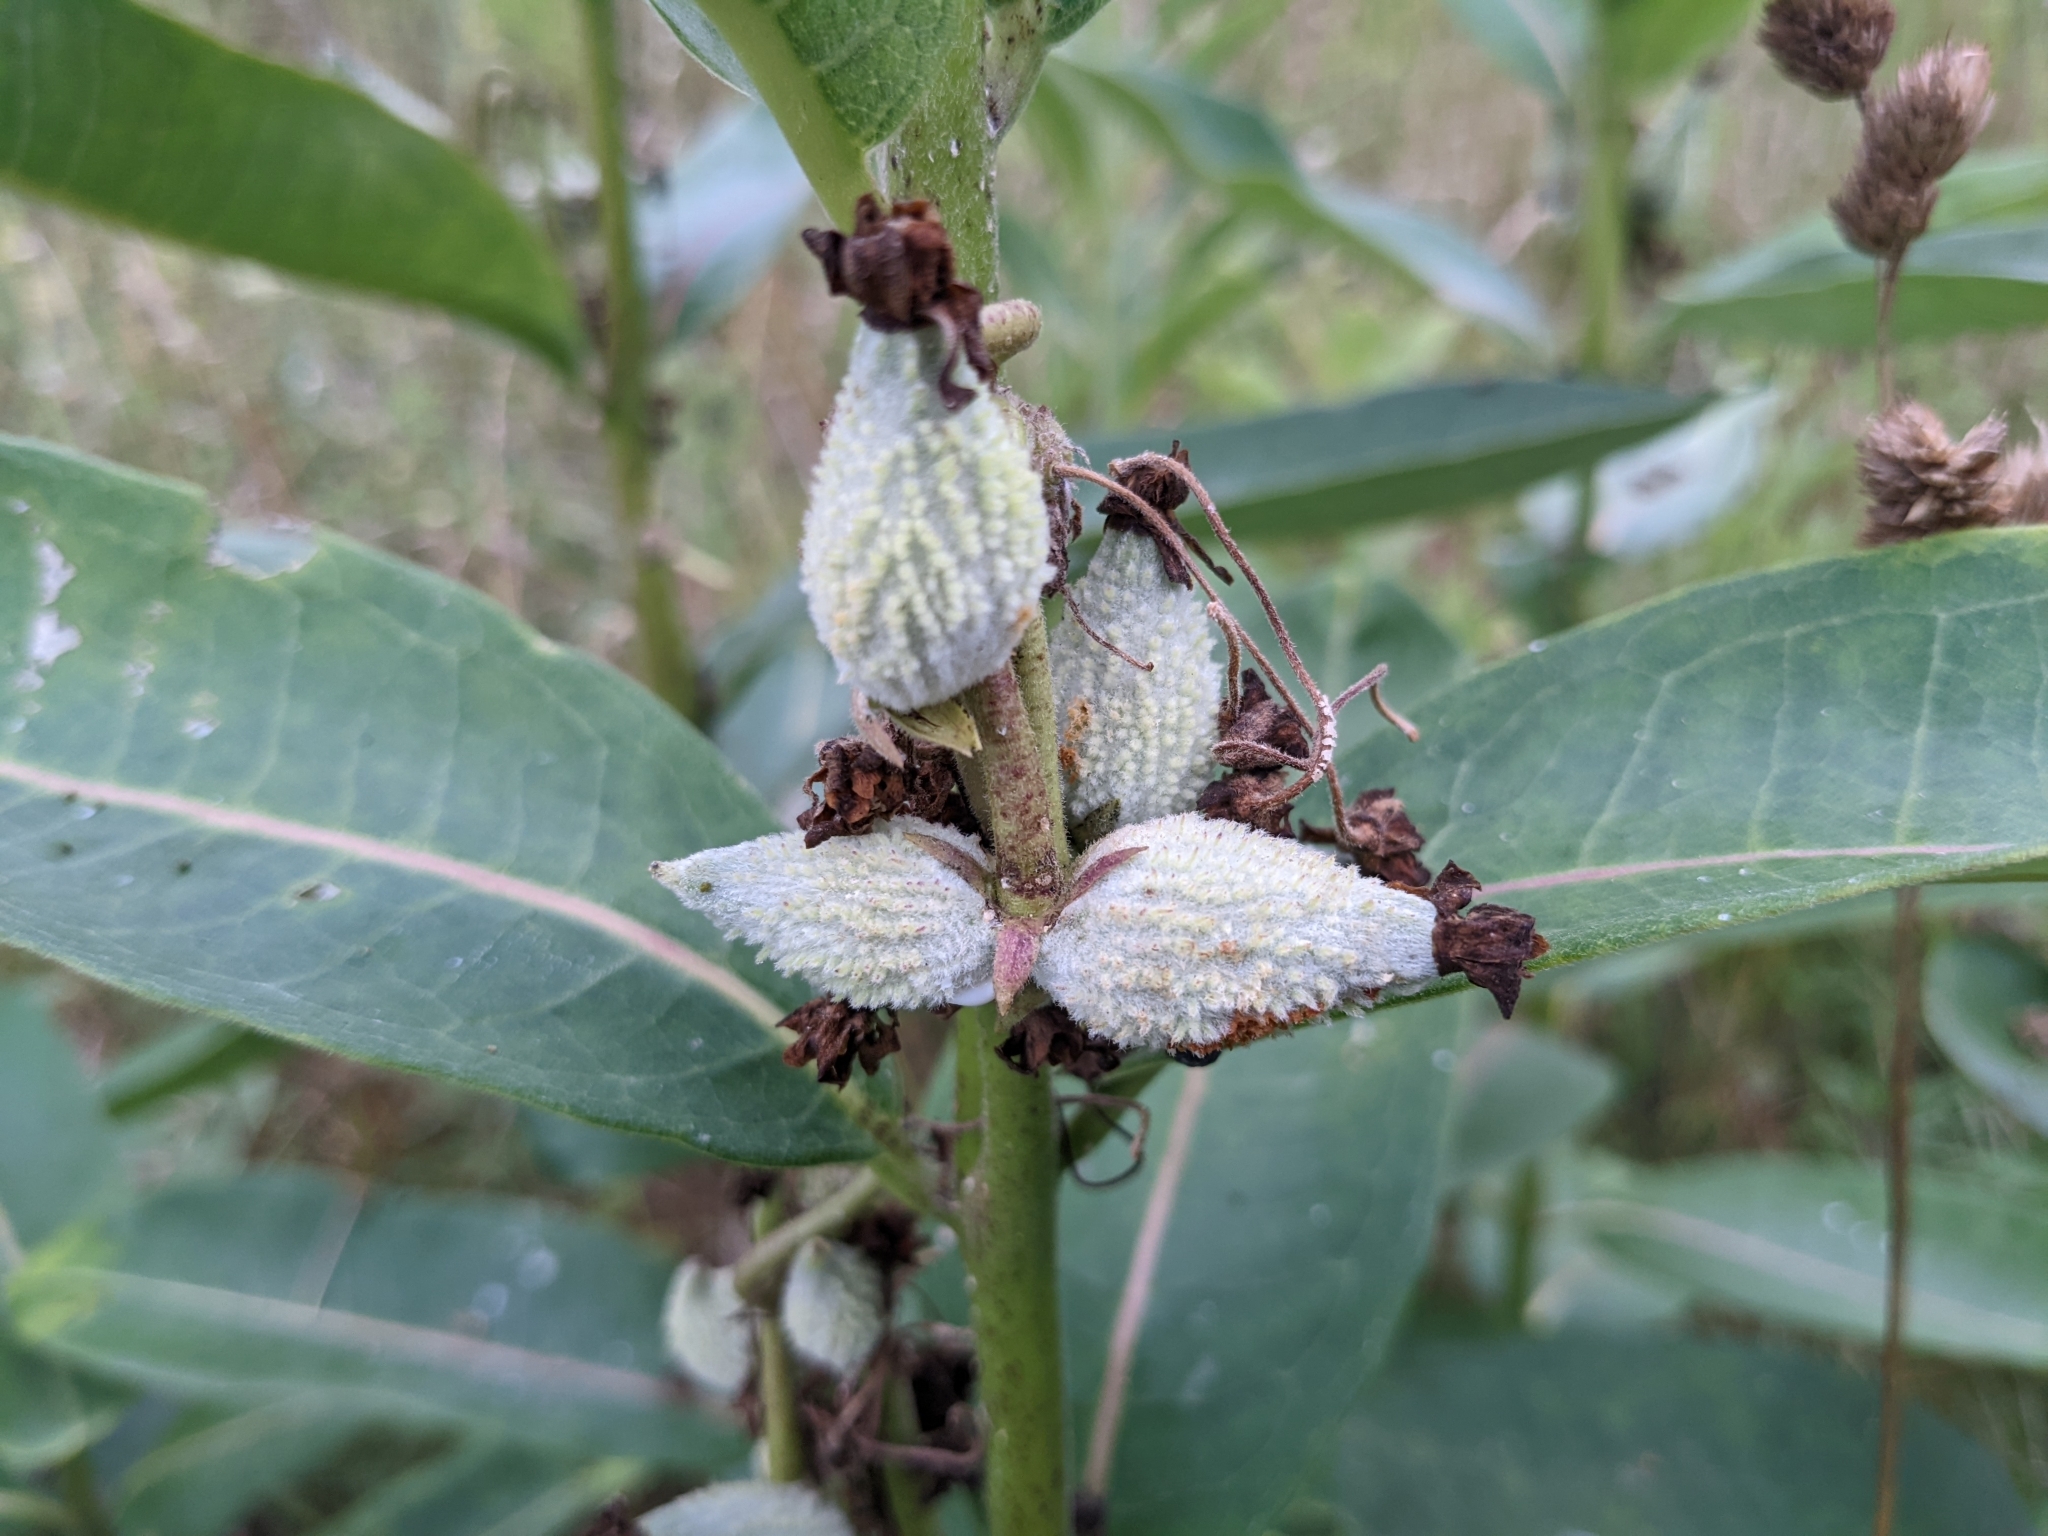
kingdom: Plantae
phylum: Tracheophyta
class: Magnoliopsida
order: Gentianales
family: Apocynaceae
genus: Asclepias
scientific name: Asclepias syriaca
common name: Common milkweed
